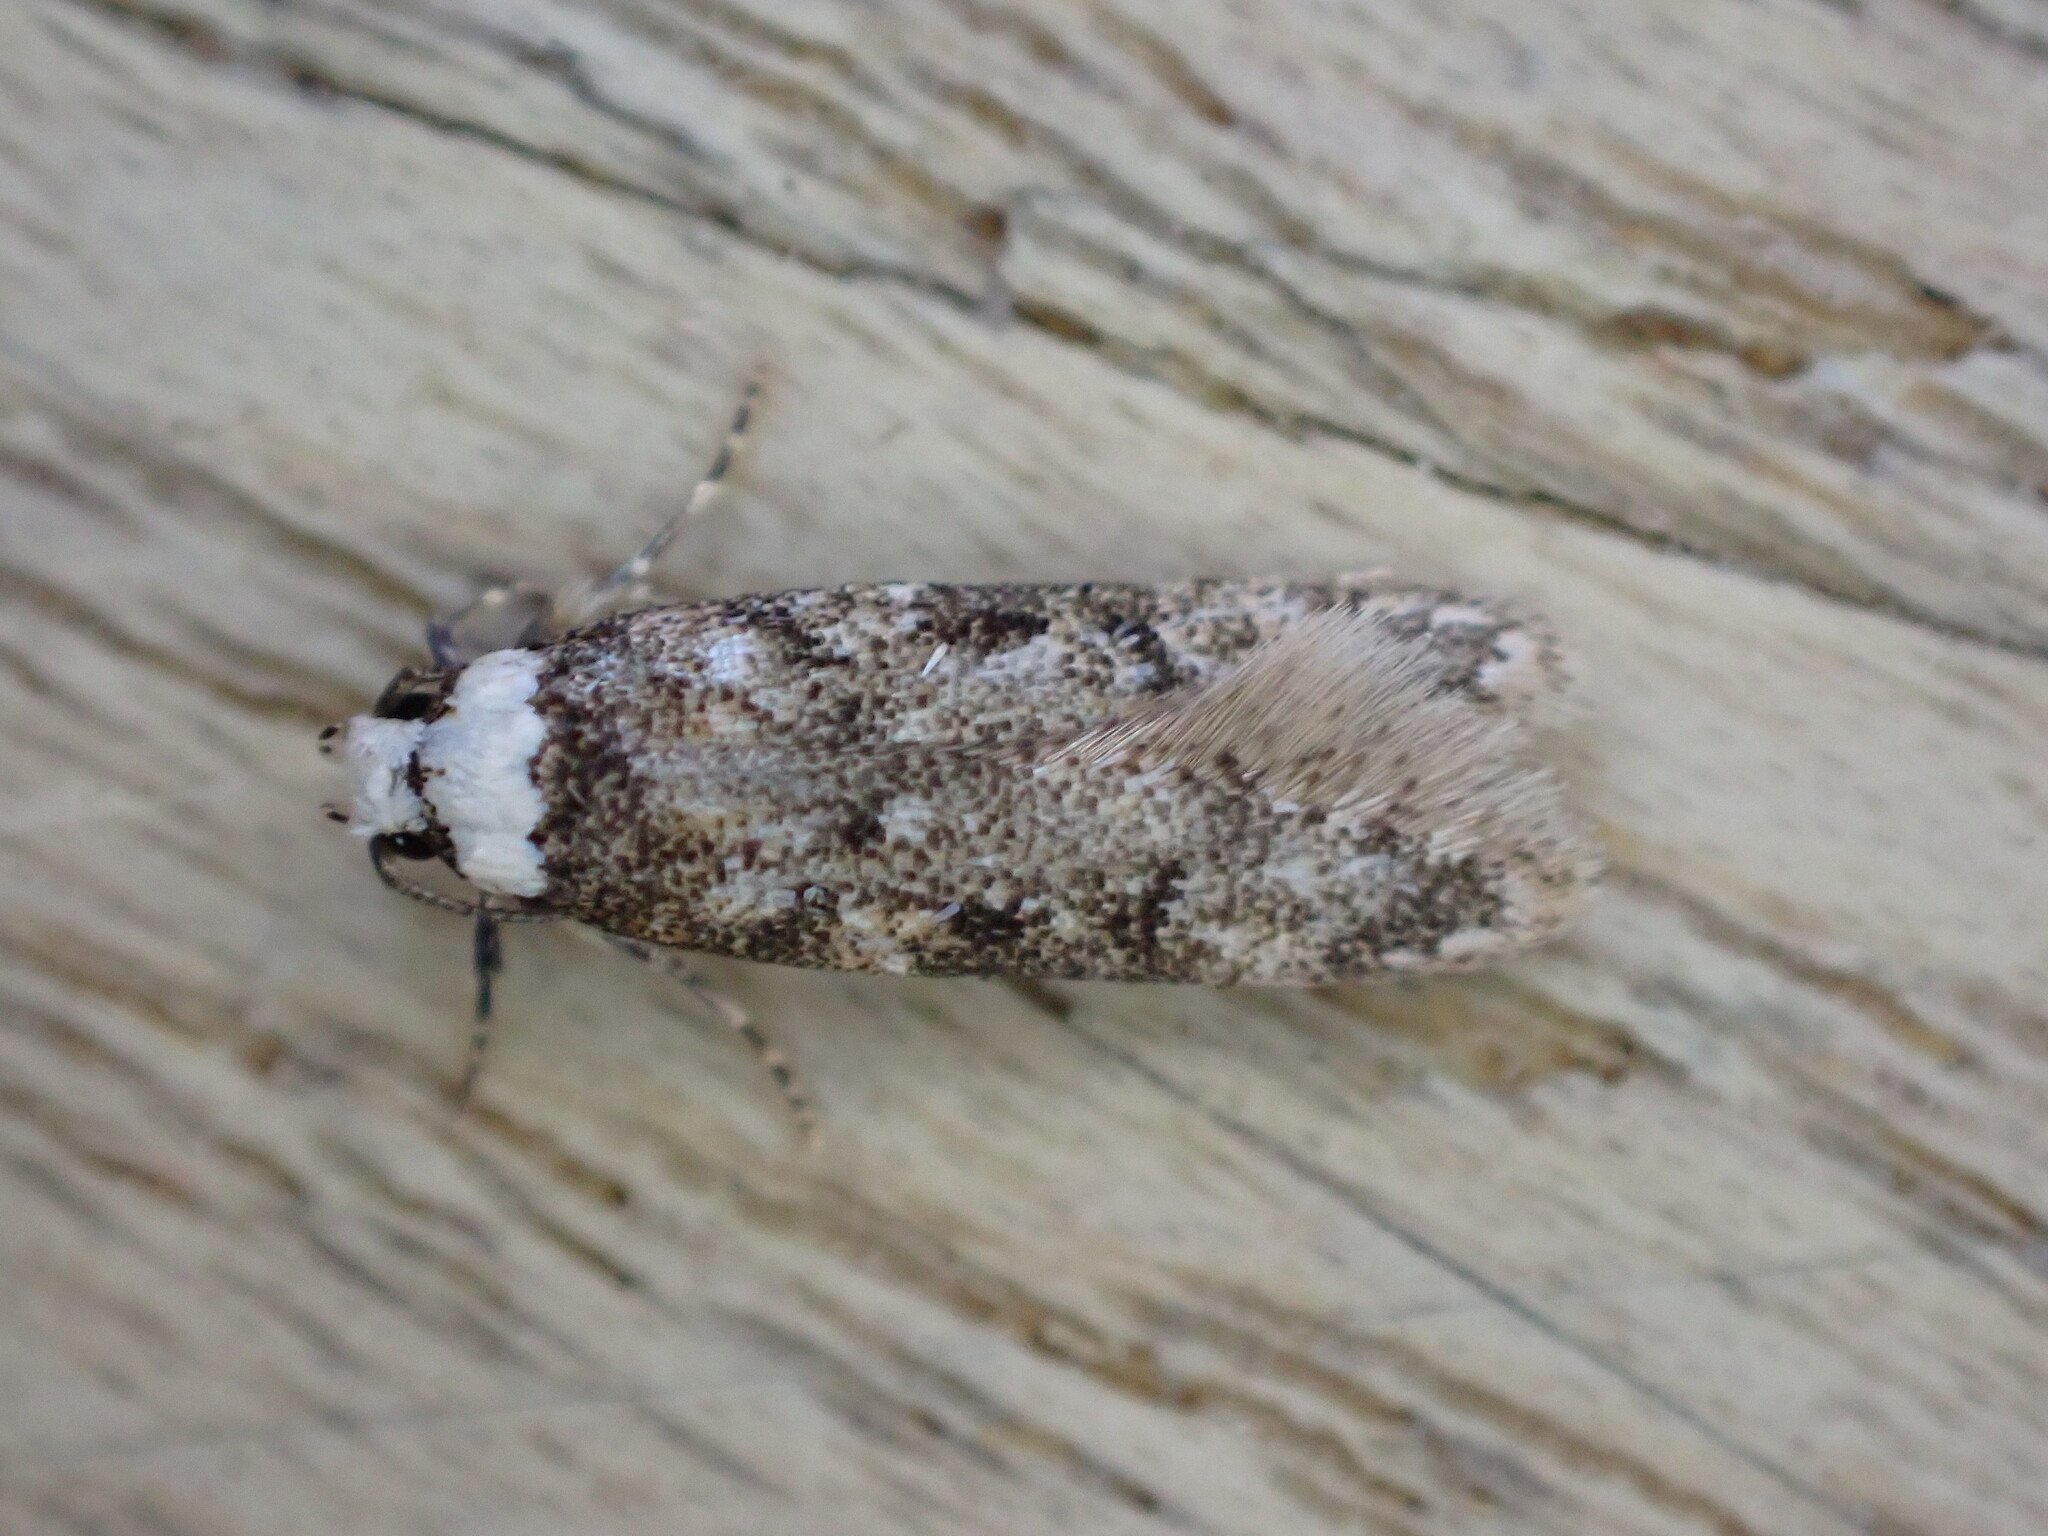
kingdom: Animalia
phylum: Arthropoda
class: Insecta
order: Lepidoptera
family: Oecophoridae
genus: Endrosis
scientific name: Endrosis sarcitrella
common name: White-shouldered house moth
